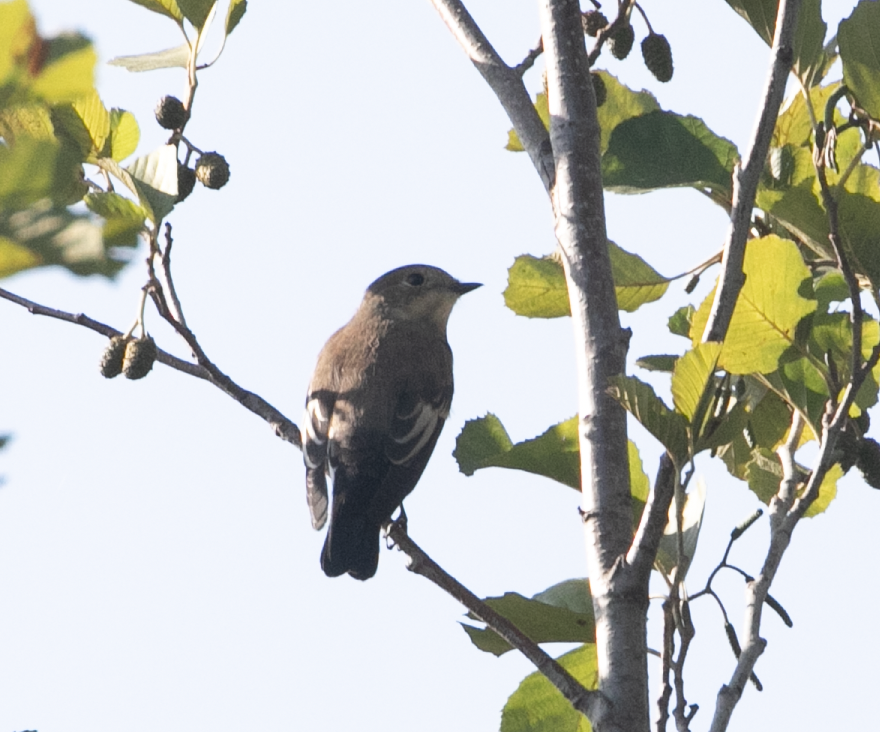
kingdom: Animalia
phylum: Chordata
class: Aves
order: Passeriformes
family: Muscicapidae
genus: Ficedula
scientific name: Ficedula hypoleuca
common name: European pied flycatcher
